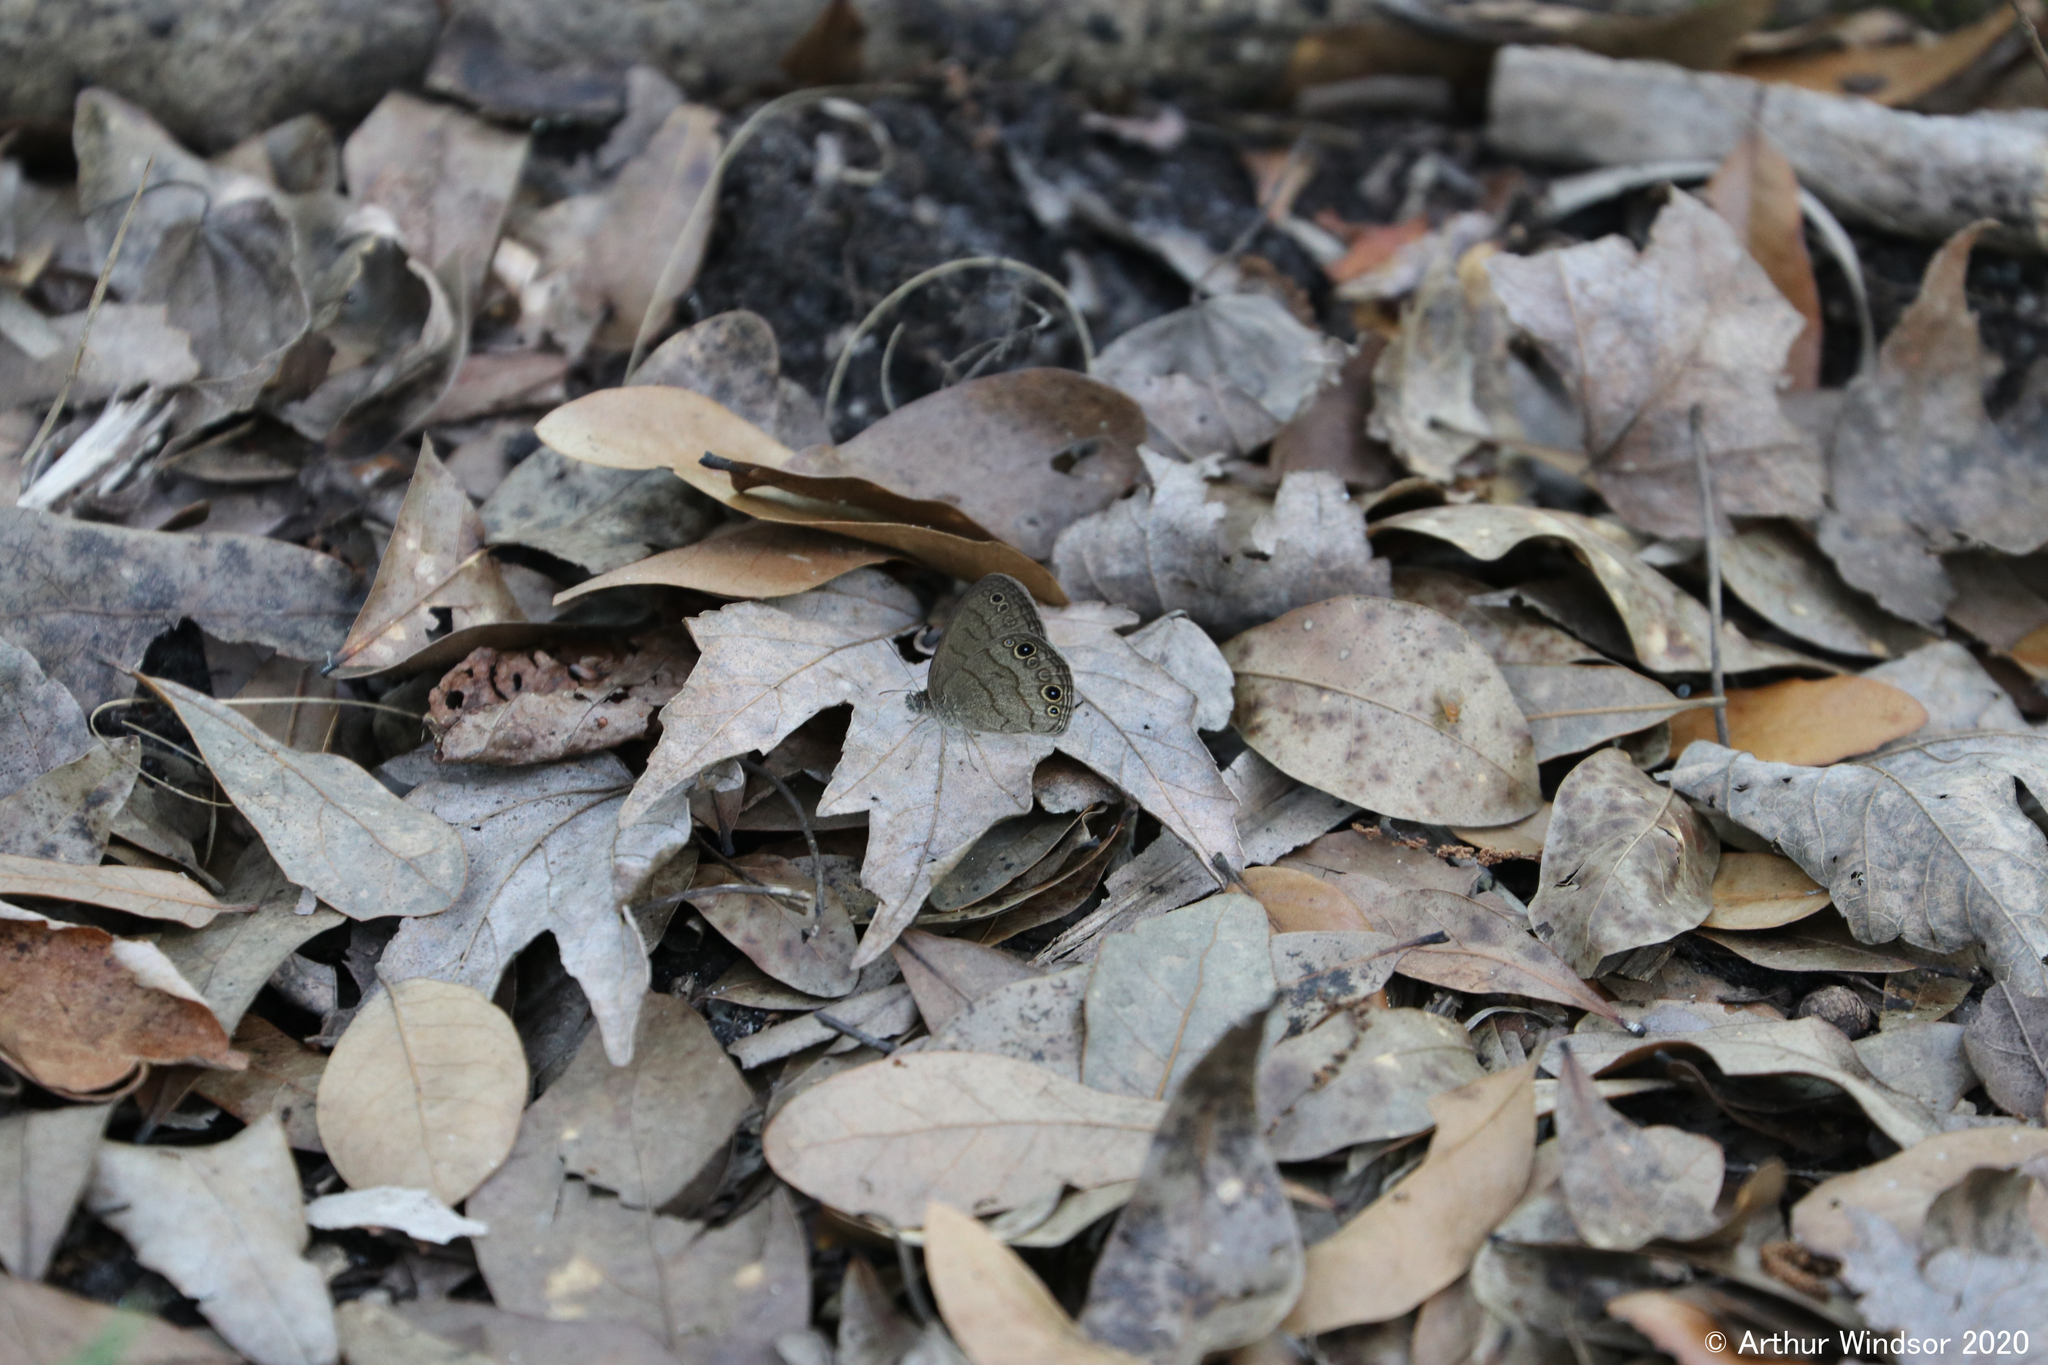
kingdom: Animalia
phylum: Arthropoda
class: Insecta
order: Lepidoptera
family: Nymphalidae
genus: Hermeuptychia
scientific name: Hermeuptychia hermes
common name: Hermes satyr
